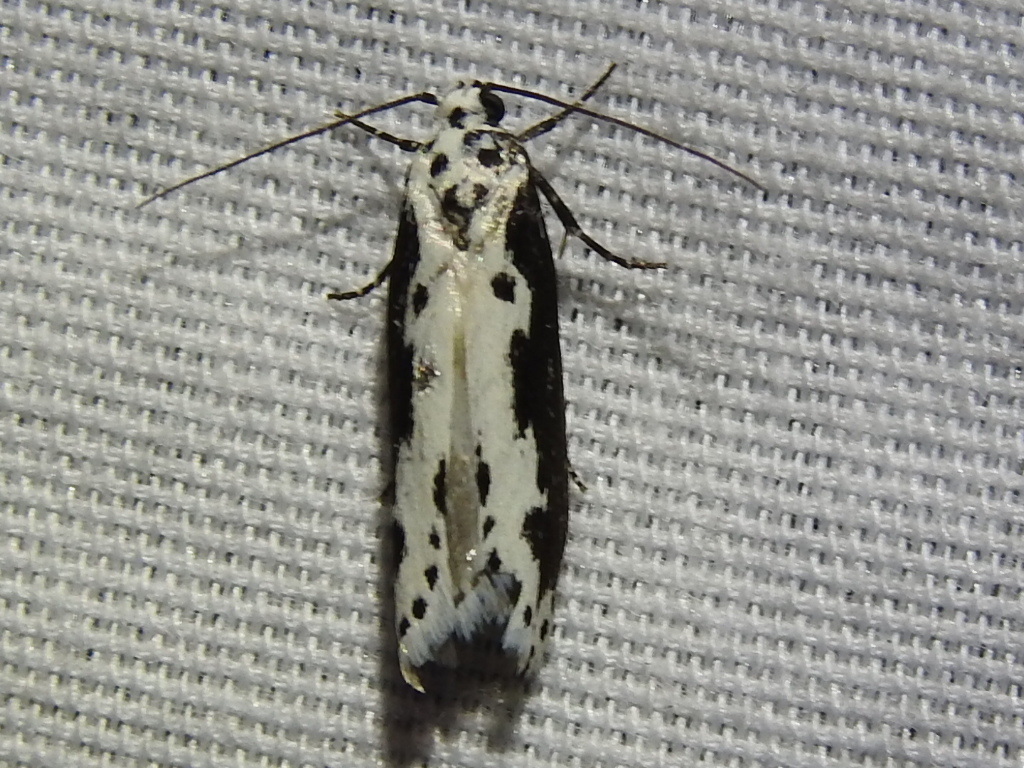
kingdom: Animalia
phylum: Arthropoda
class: Insecta
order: Lepidoptera
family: Ethmiidae
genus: Ethmia
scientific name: Ethmia semilugens
